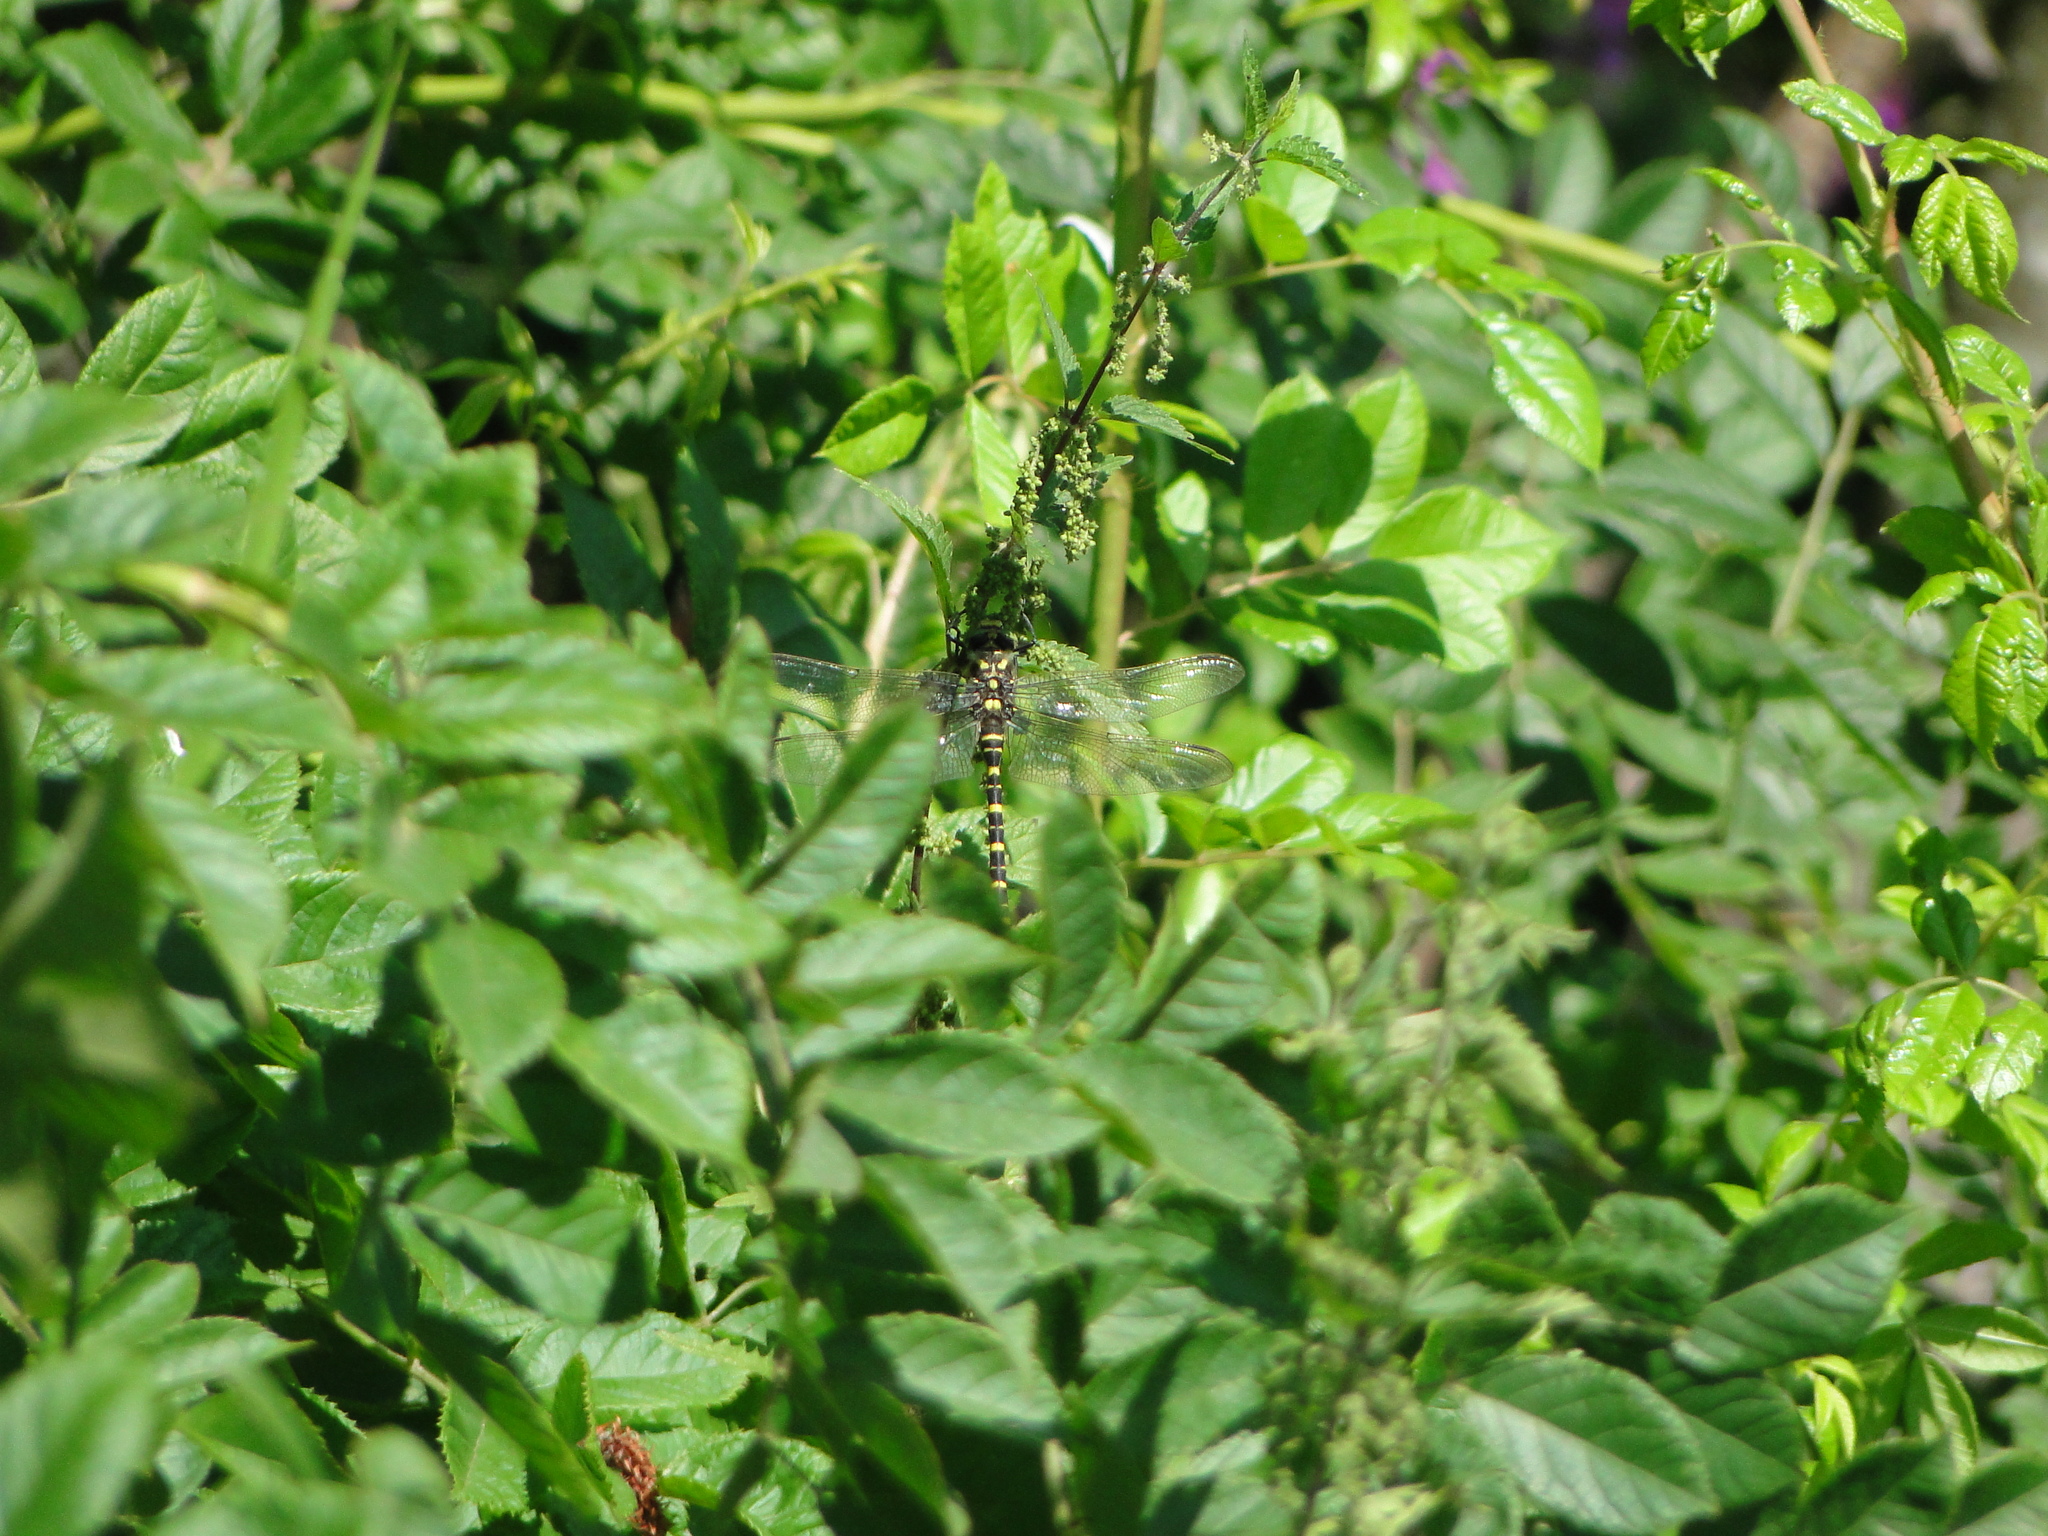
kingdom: Animalia
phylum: Arthropoda
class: Insecta
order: Odonata
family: Cordulegastridae
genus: Cordulegaster
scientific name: Cordulegaster boltonii
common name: Golden-ringed dragonfly
